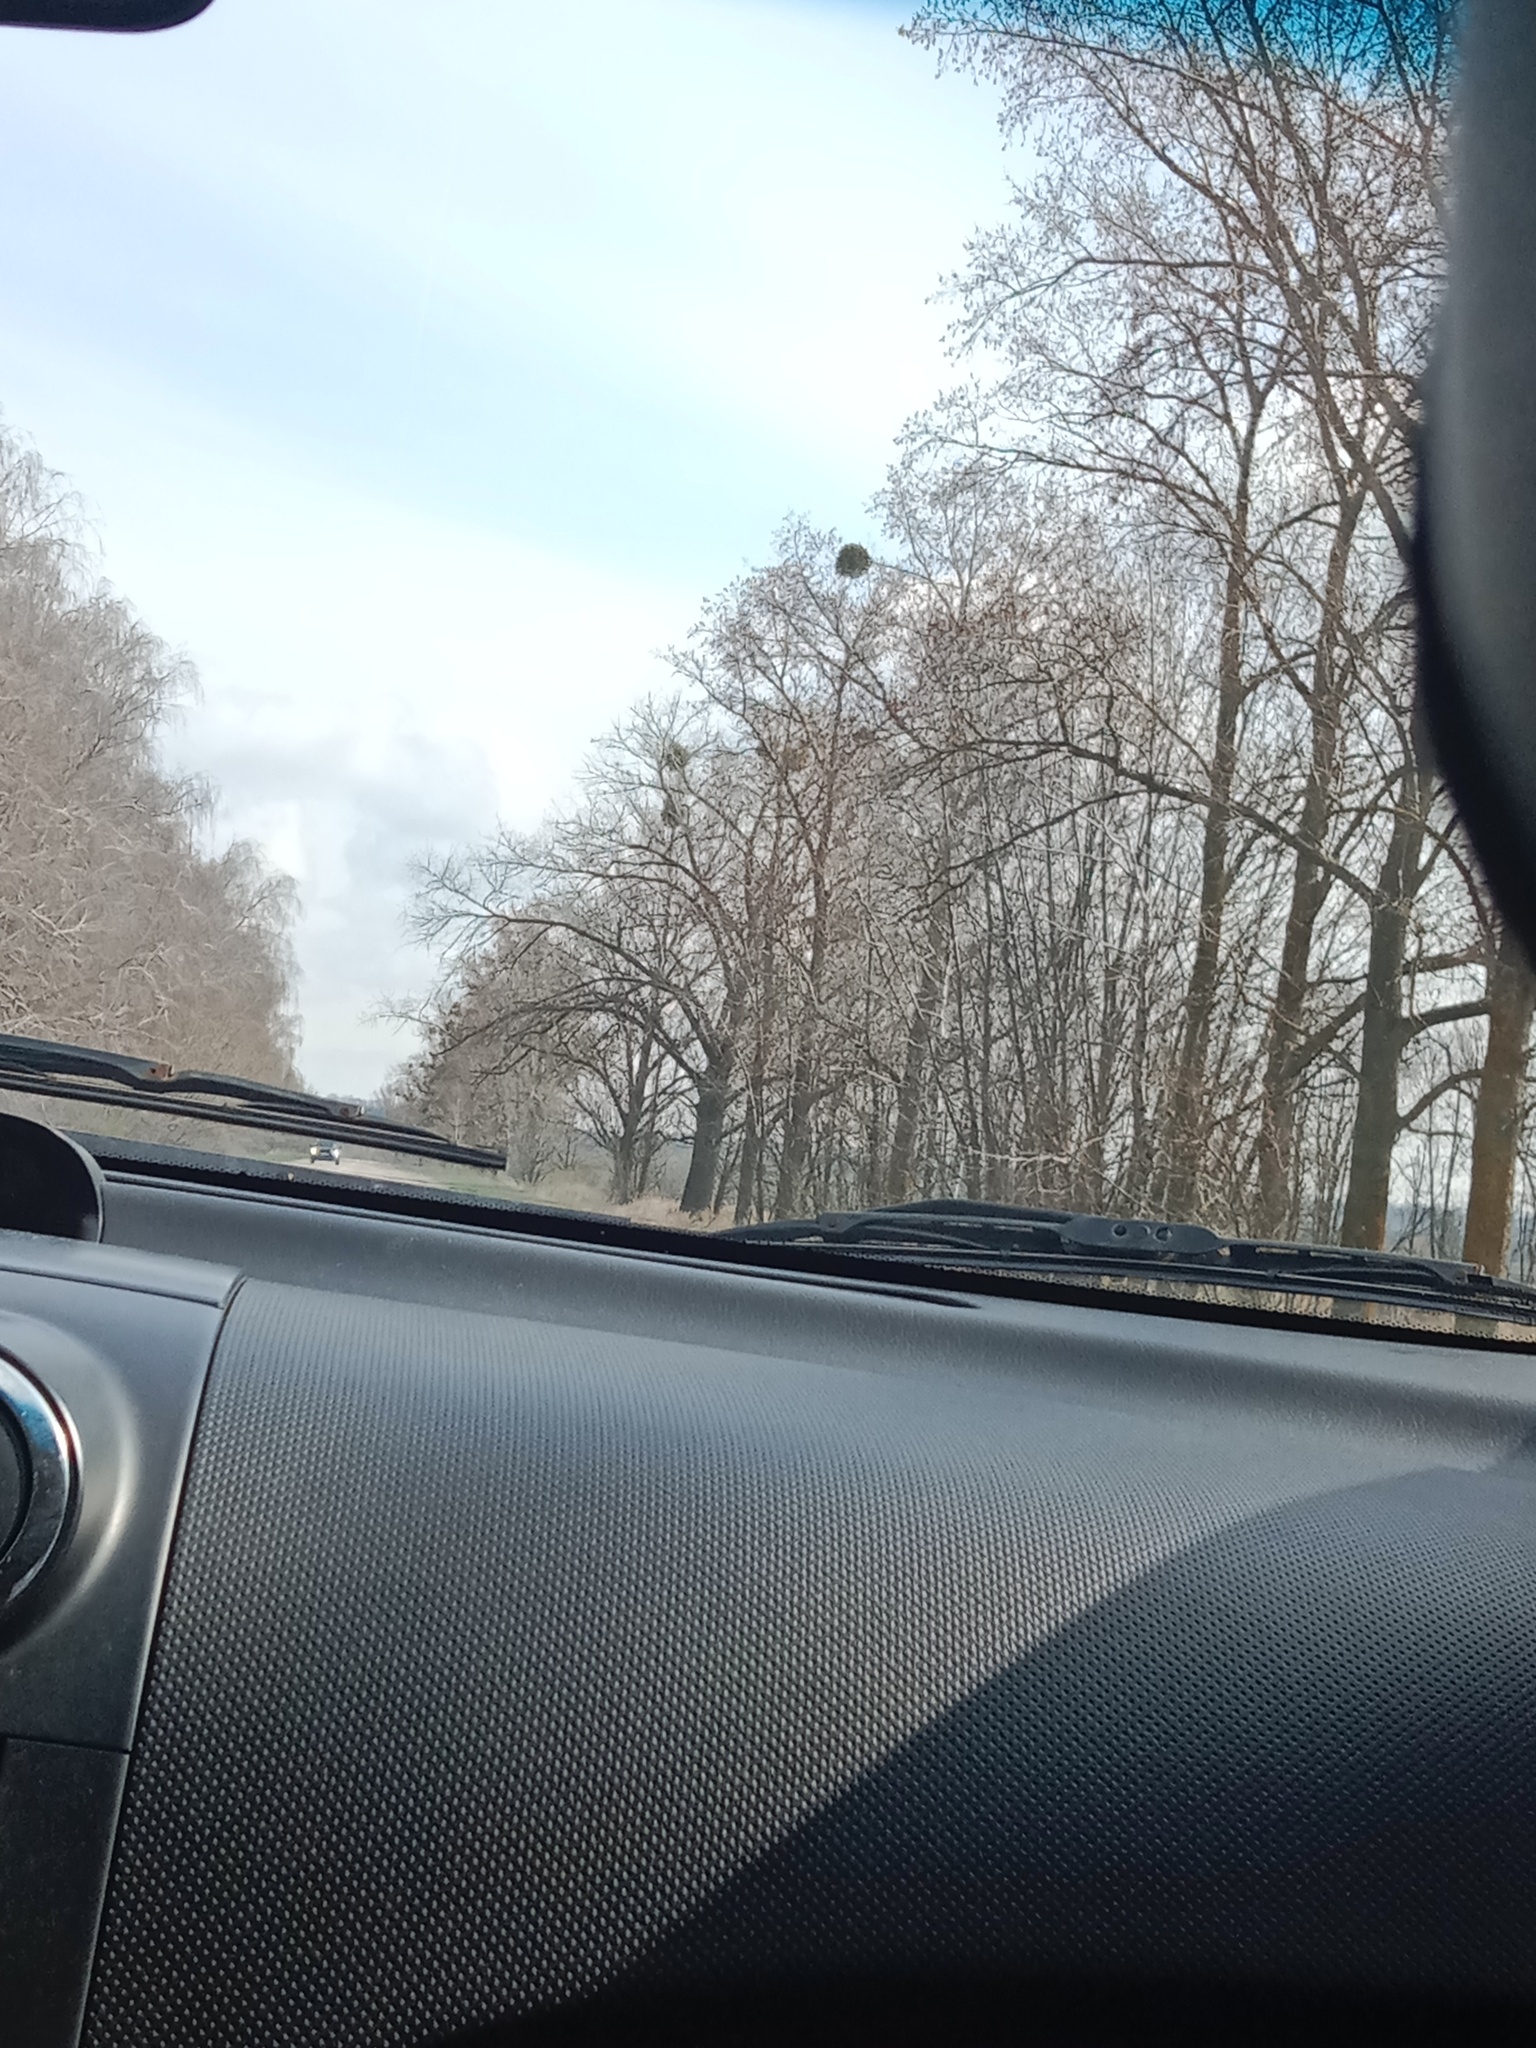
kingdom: Plantae
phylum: Tracheophyta
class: Magnoliopsida
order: Santalales
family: Viscaceae
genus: Viscum
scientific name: Viscum album
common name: Mistletoe
